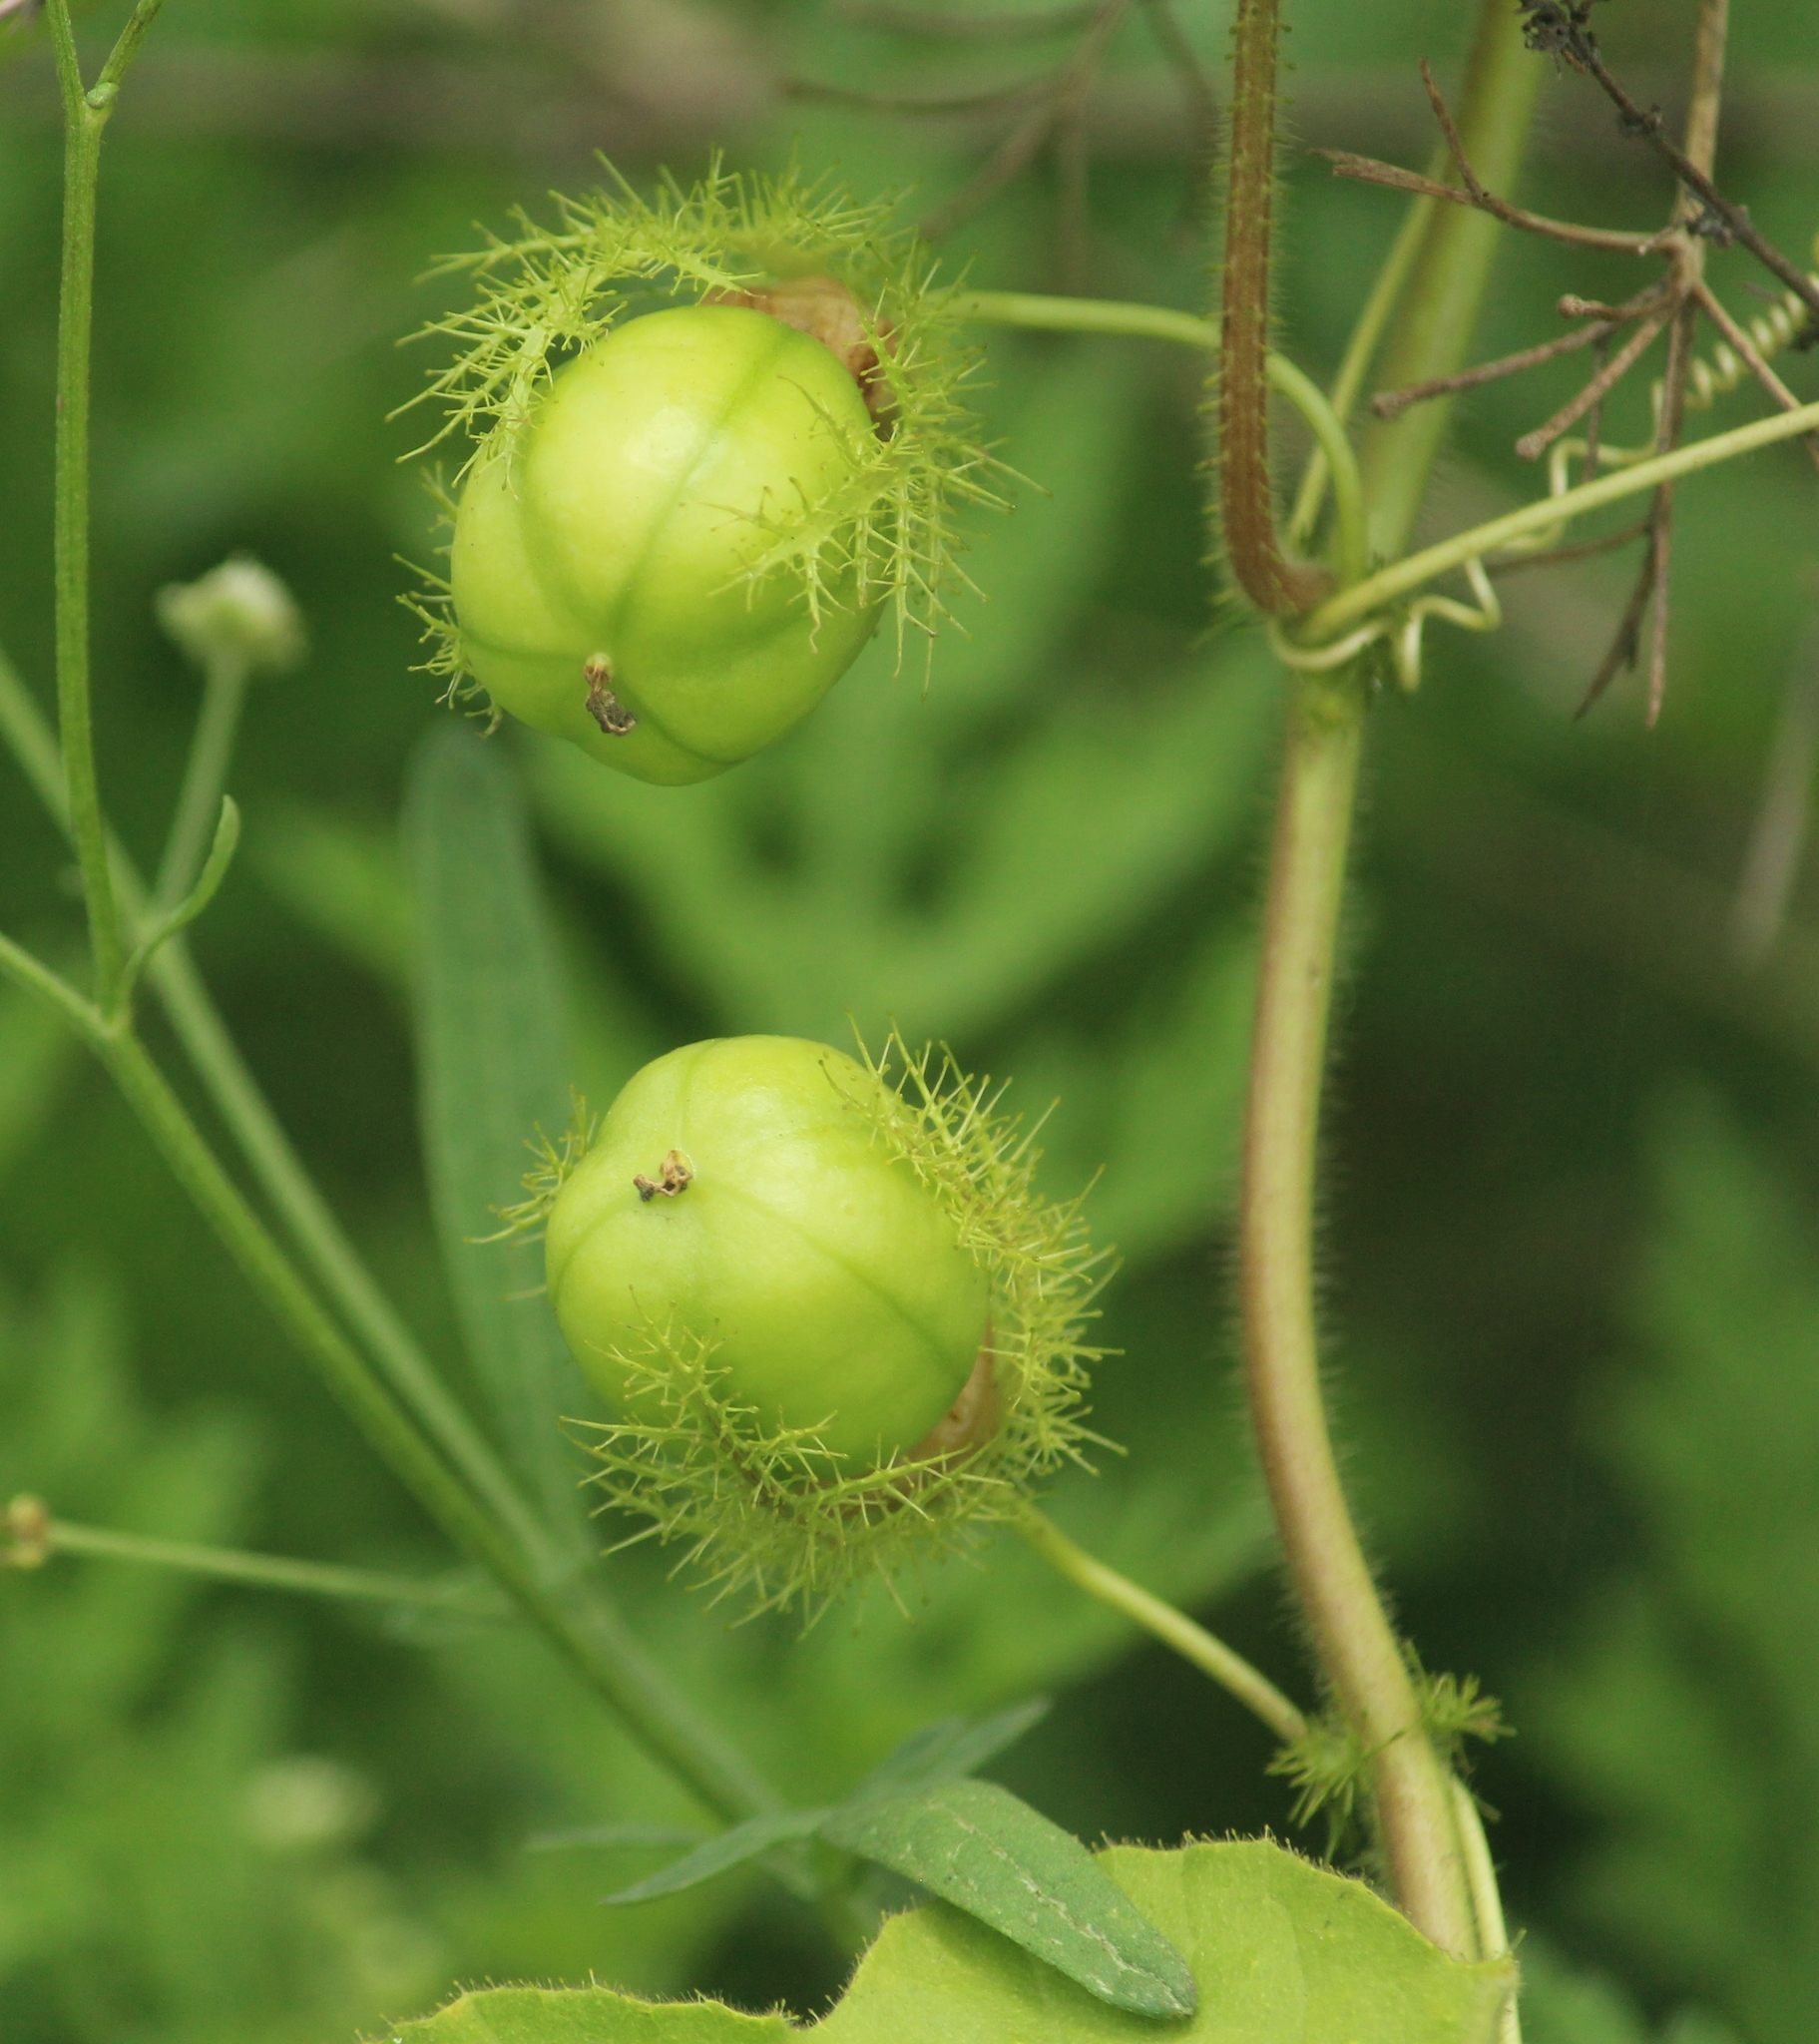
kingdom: Plantae
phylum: Tracheophyta
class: Magnoliopsida
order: Malpighiales
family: Passifloraceae
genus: Passiflora
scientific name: Passiflora foetida
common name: Fetid passionflower
